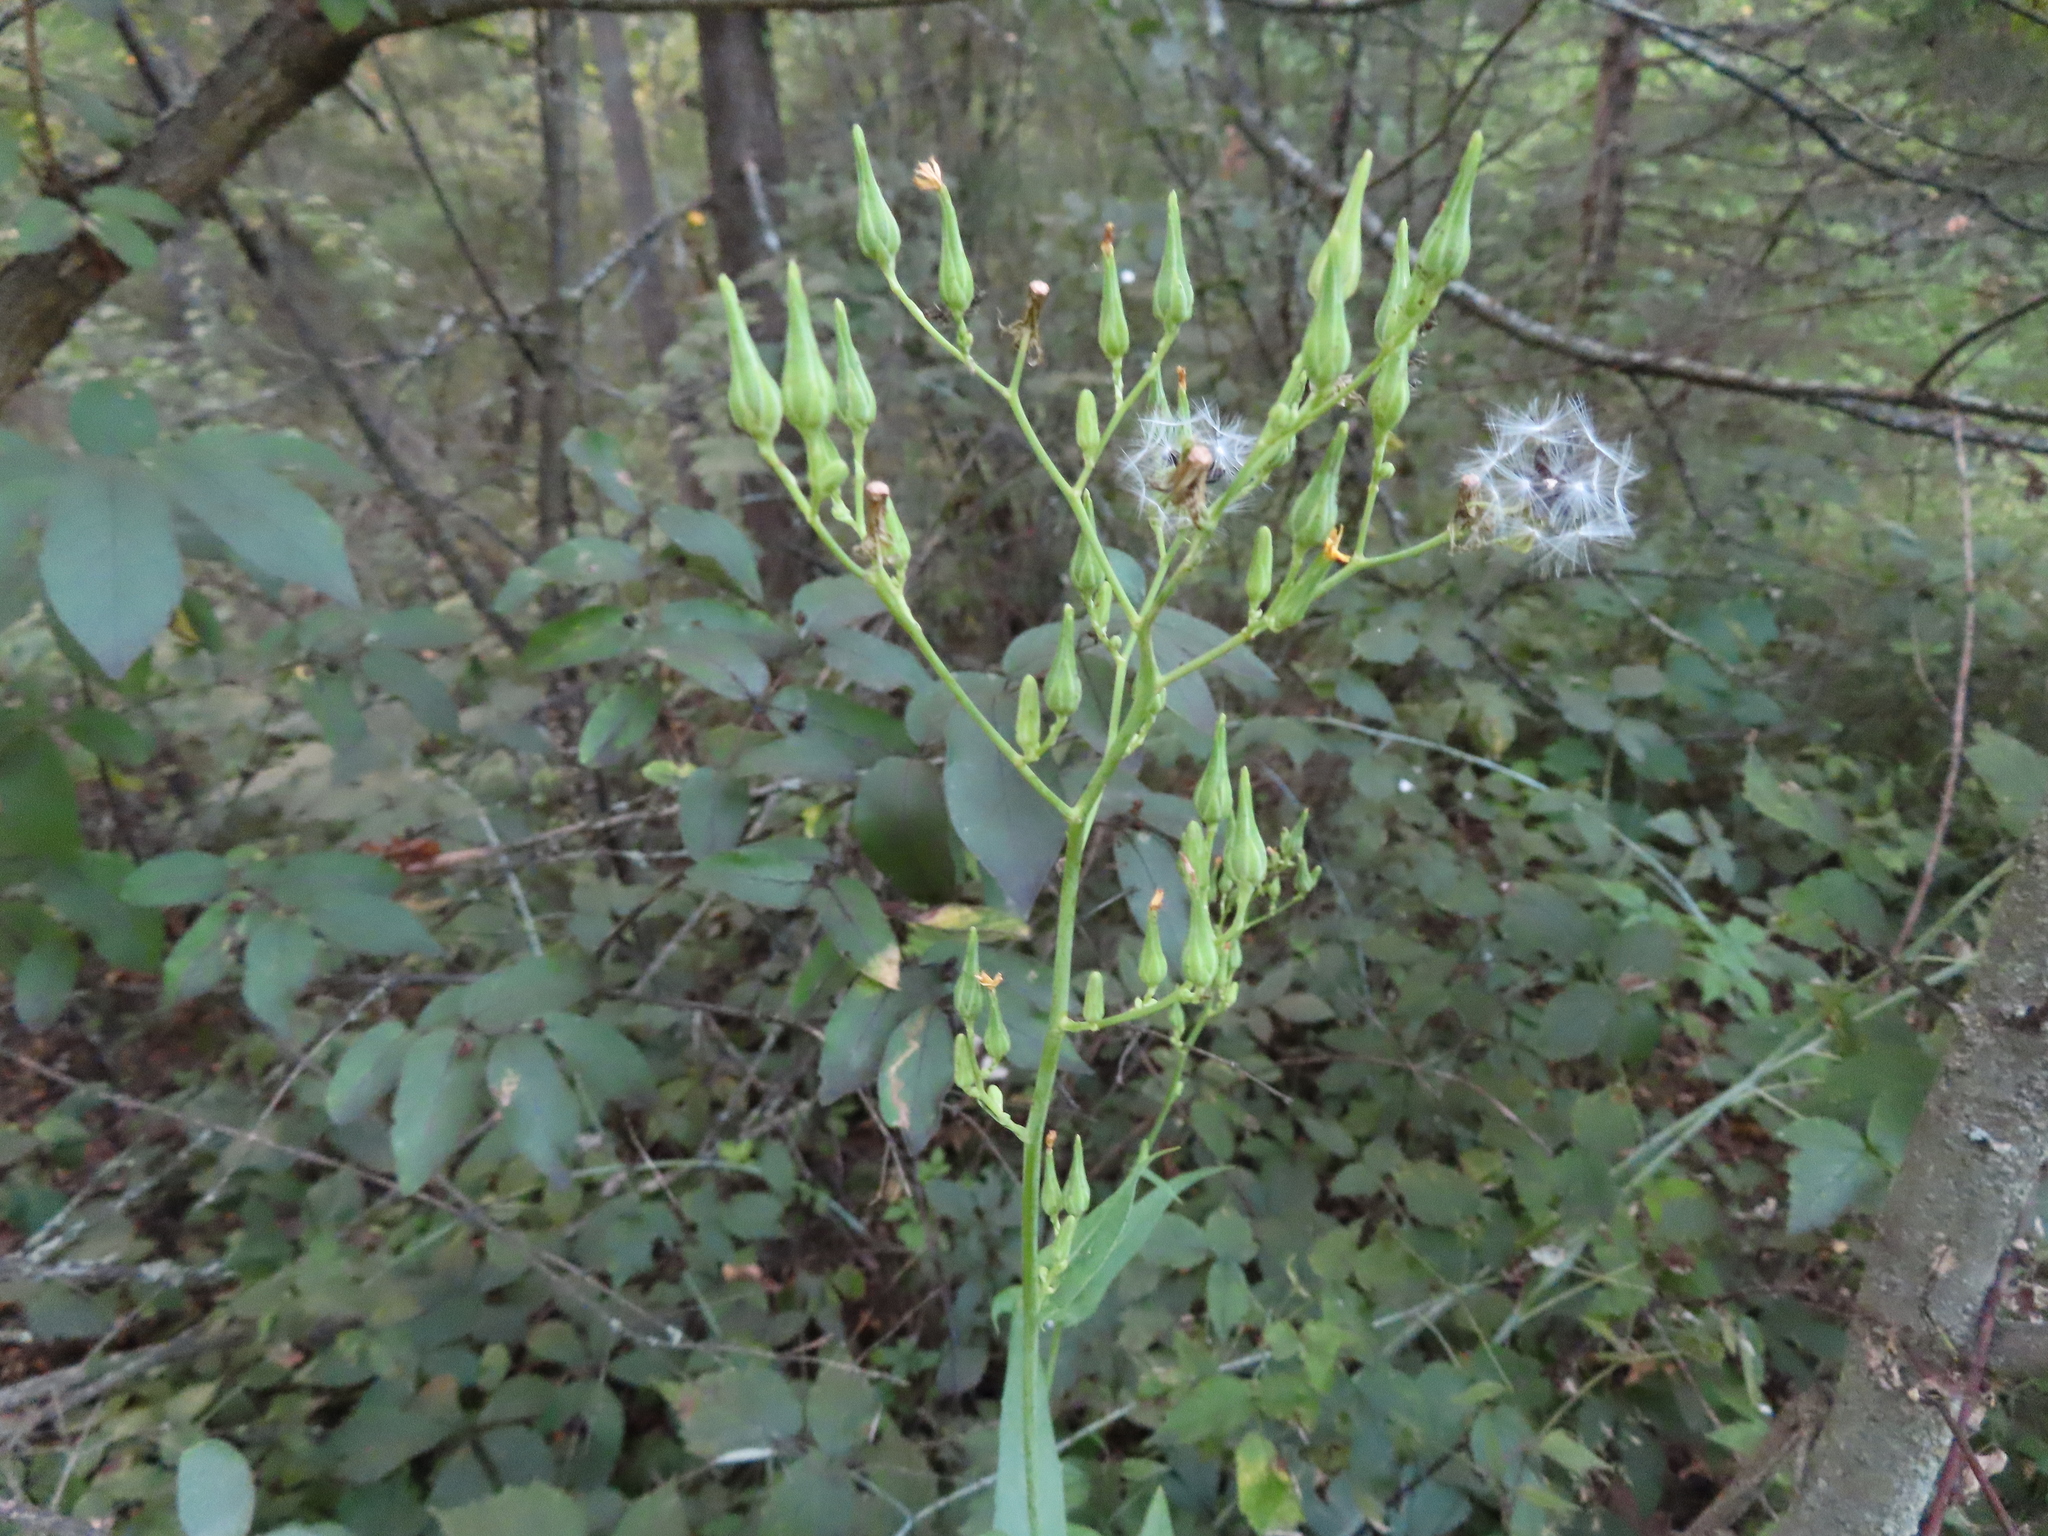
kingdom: Plantae
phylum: Tracheophyta
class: Magnoliopsida
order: Asterales
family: Asteraceae
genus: Lactuca
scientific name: Lactuca canadensis
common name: Canada lettuce
